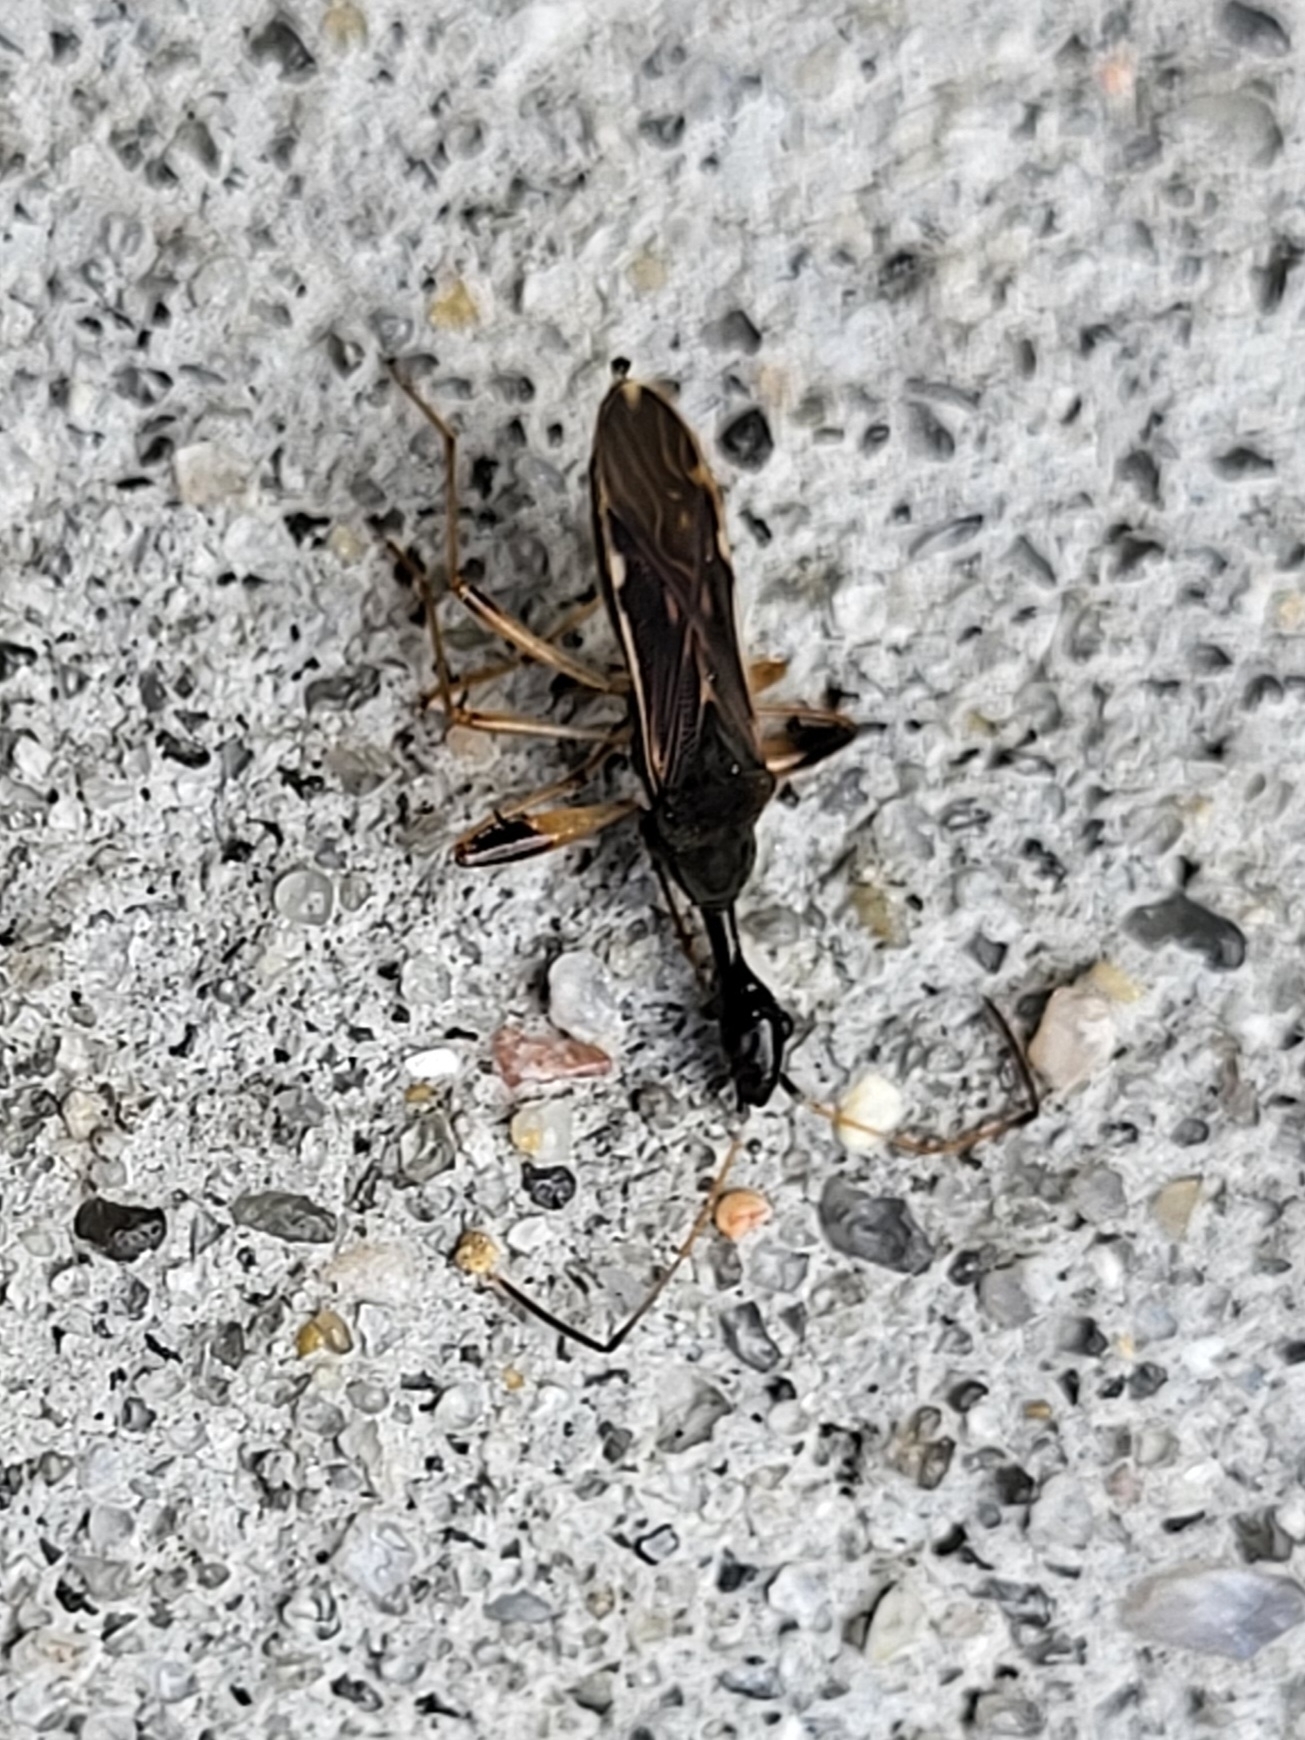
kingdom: Animalia
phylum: Arthropoda
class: Insecta
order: Hemiptera
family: Rhyparochromidae
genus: Myodocha
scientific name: Myodocha serripes
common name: Long-necked seed bug
